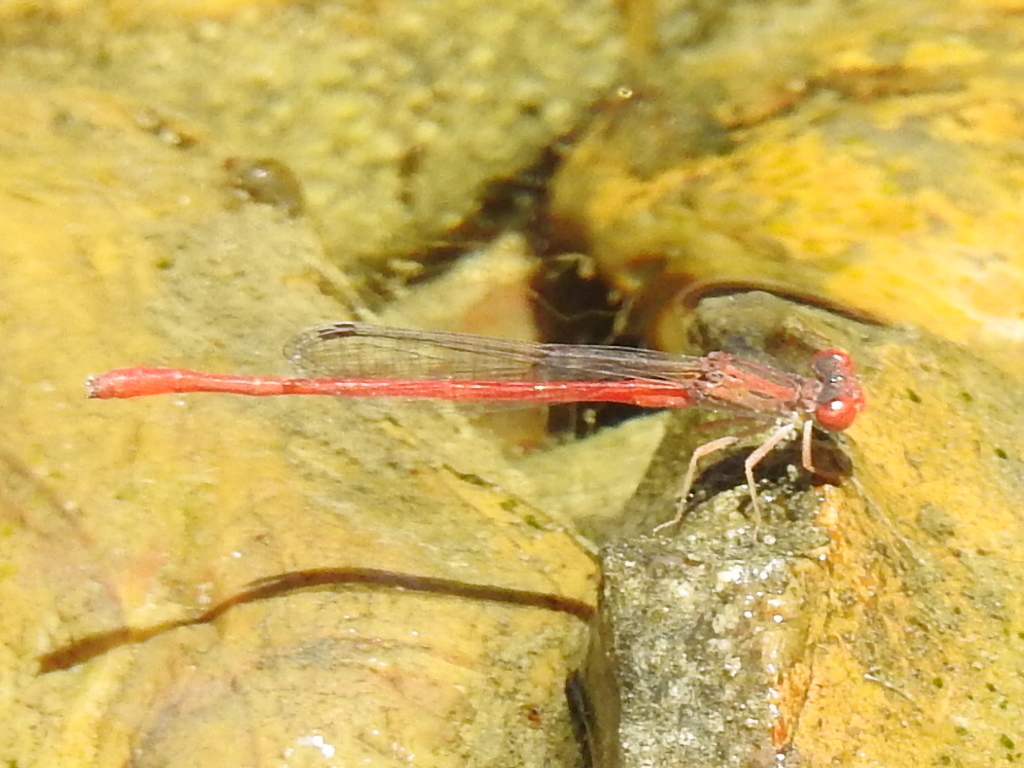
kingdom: Animalia
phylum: Arthropoda
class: Insecta
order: Odonata
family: Coenagrionidae
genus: Telebasis
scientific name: Telebasis salva
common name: Desert firetail
